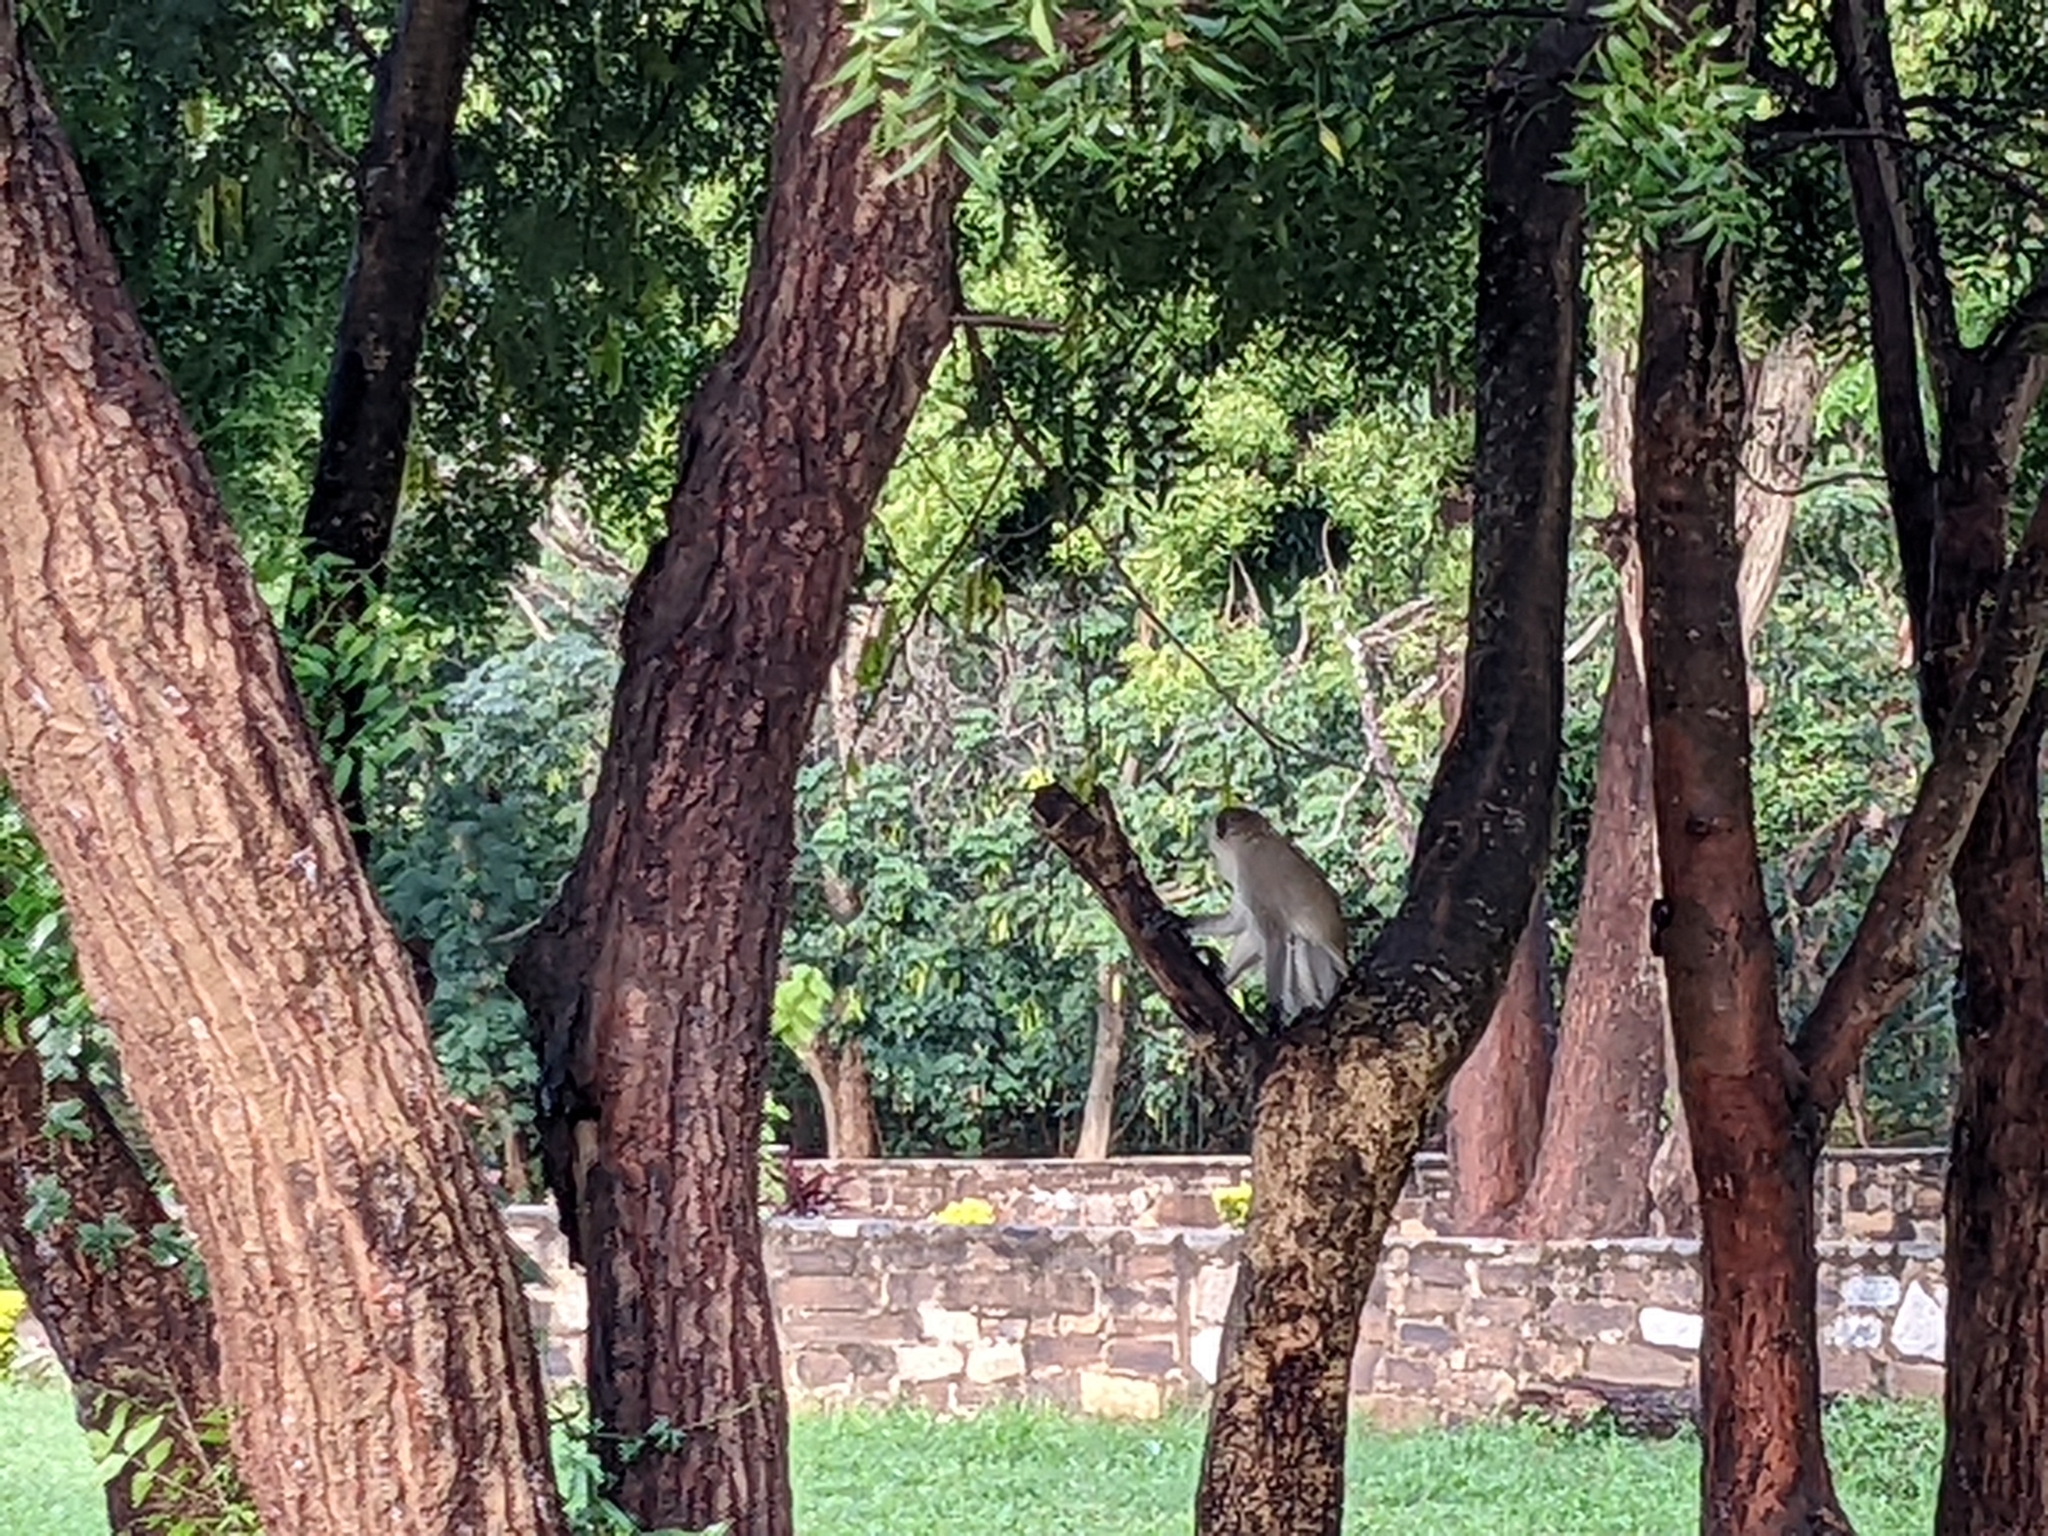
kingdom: Animalia
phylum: Chordata
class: Mammalia
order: Primates
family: Cercopithecidae
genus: Chlorocebus
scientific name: Chlorocebus pygerythrus
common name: Vervet monkey
